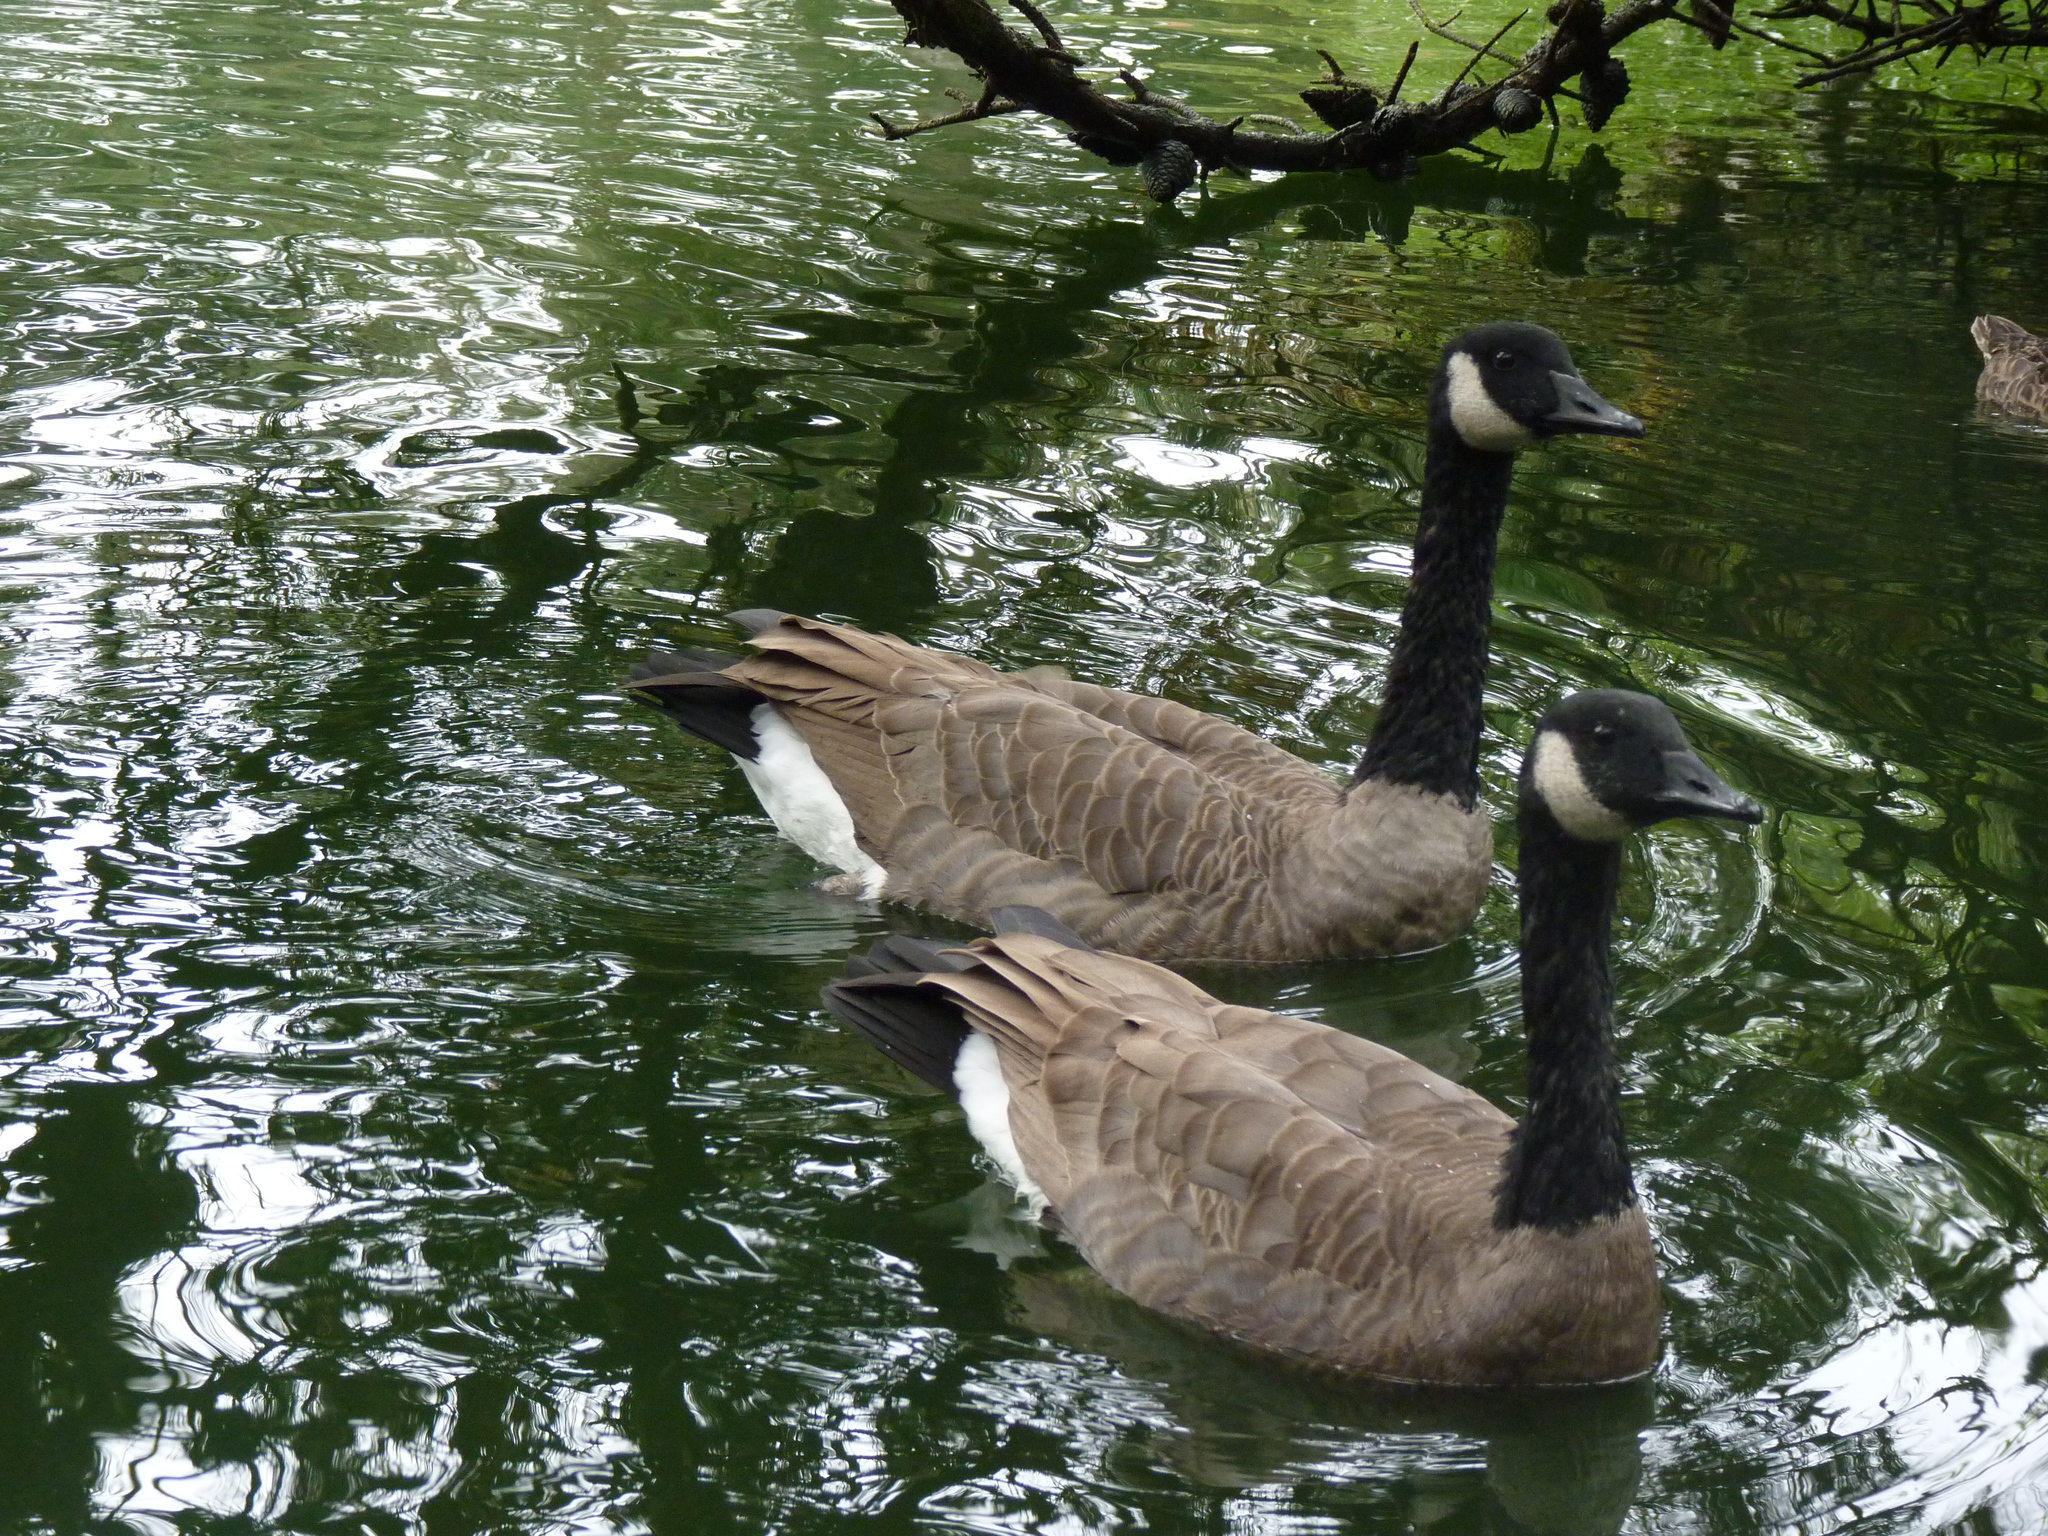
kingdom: Animalia
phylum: Chordata
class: Aves
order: Anseriformes
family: Anatidae
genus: Branta
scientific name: Branta canadensis
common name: Canada goose
